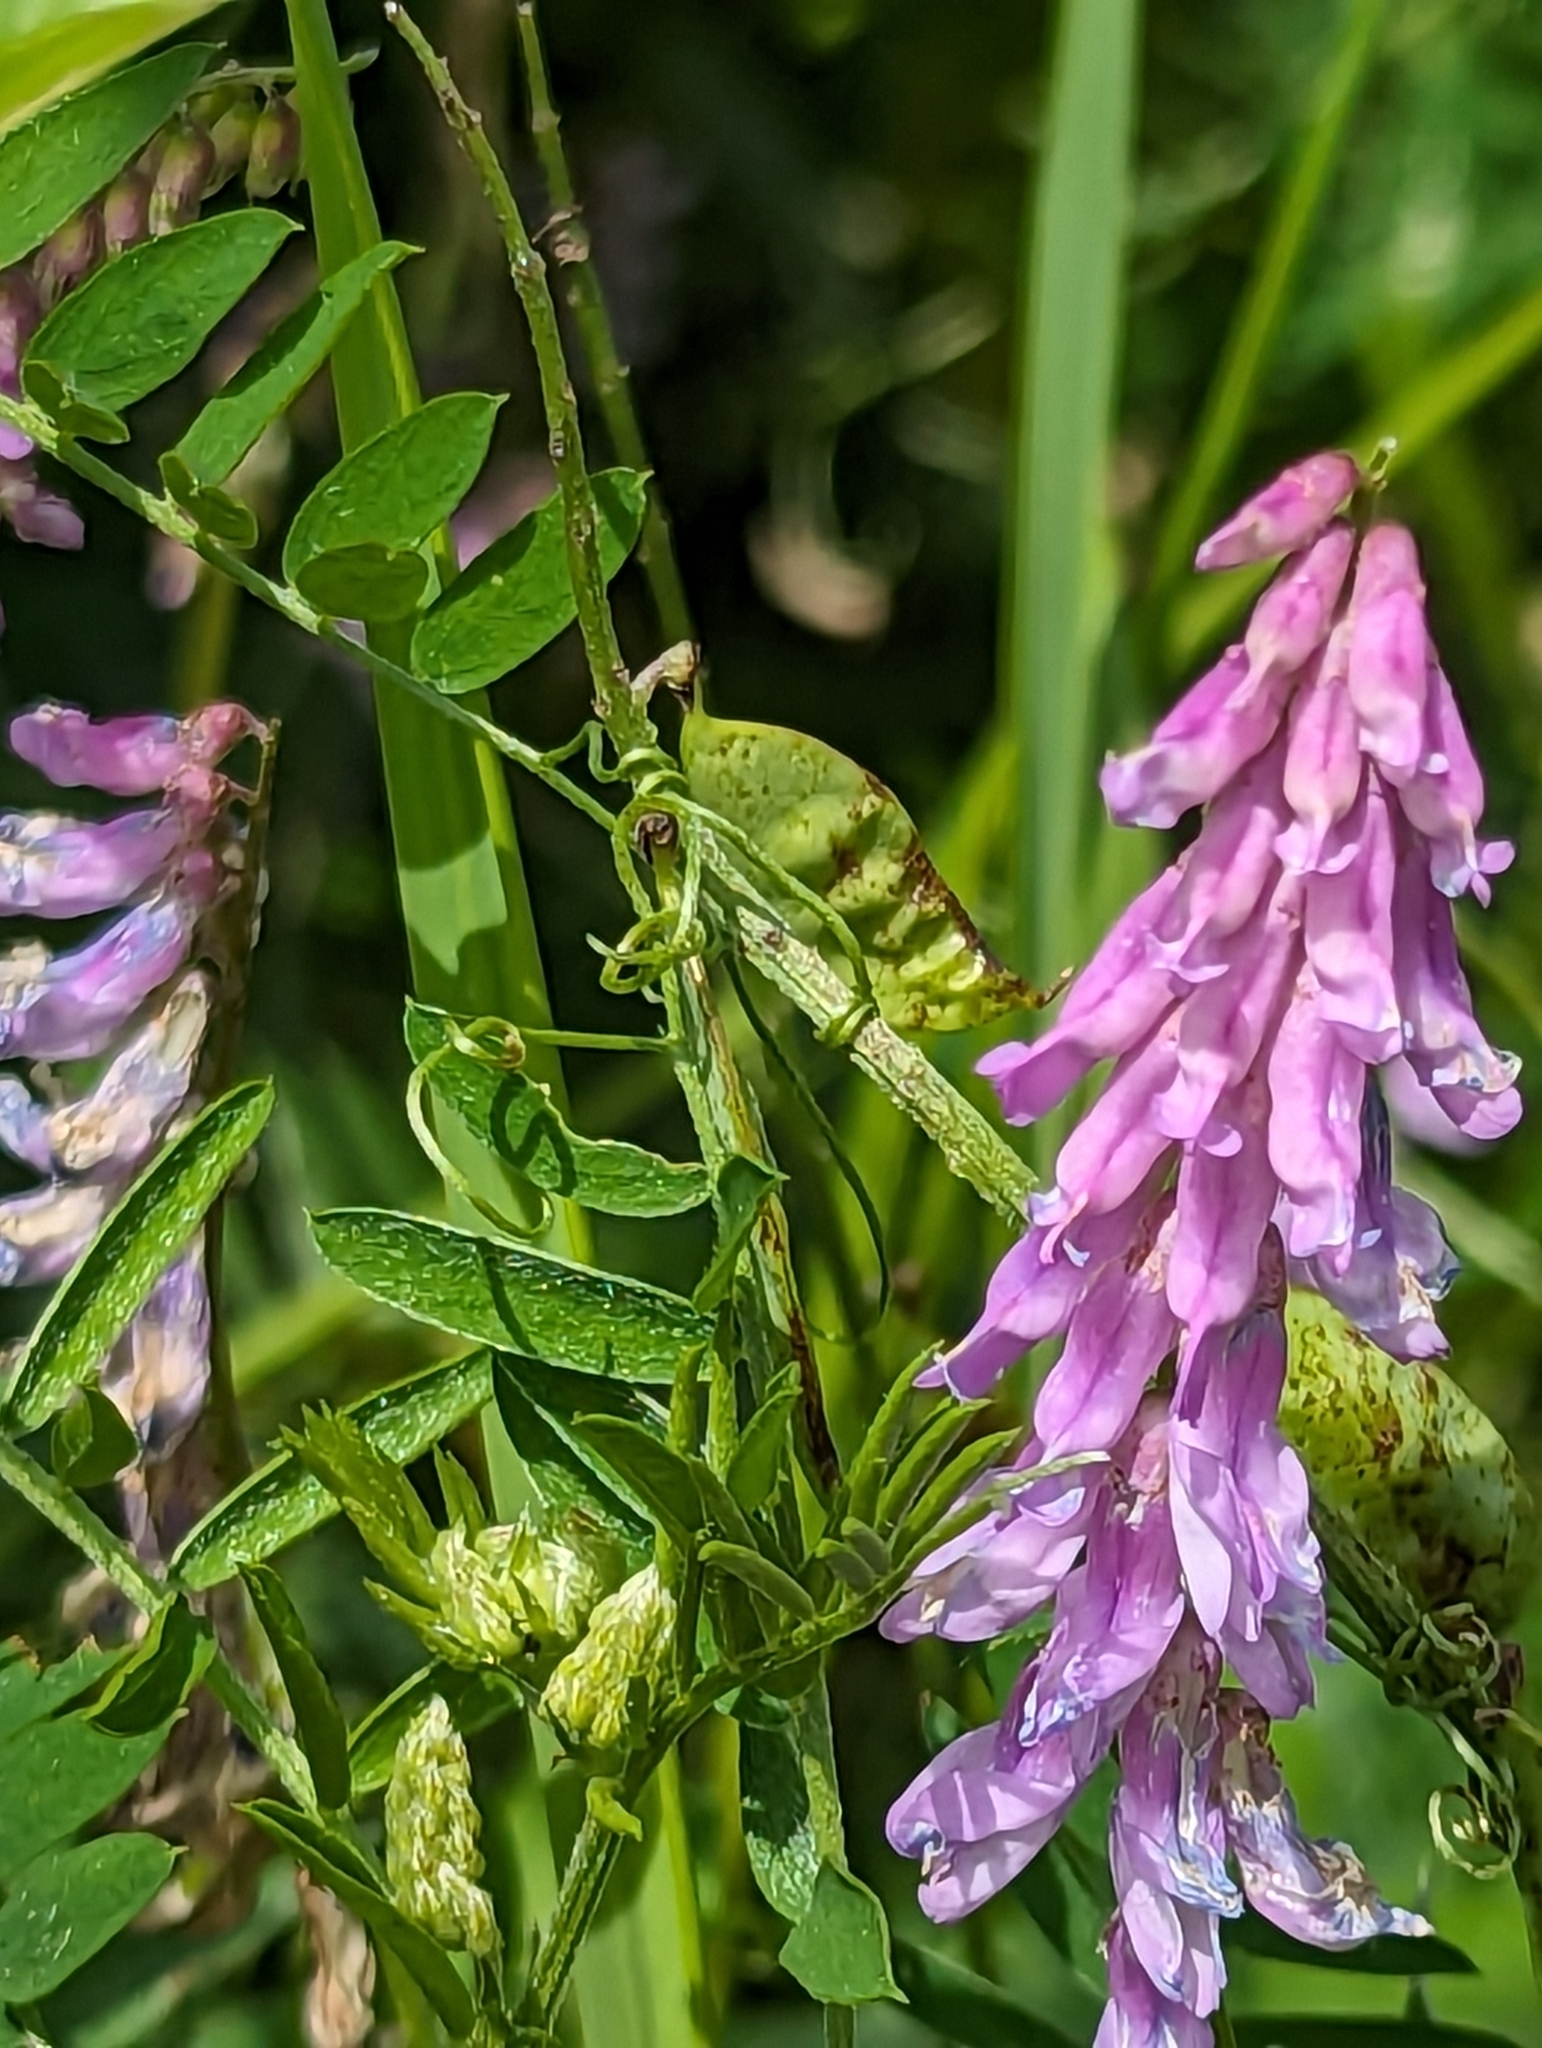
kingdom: Plantae
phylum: Tracheophyta
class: Magnoliopsida
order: Fabales
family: Fabaceae
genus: Vicia
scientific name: Vicia cracca
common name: Bird vetch
